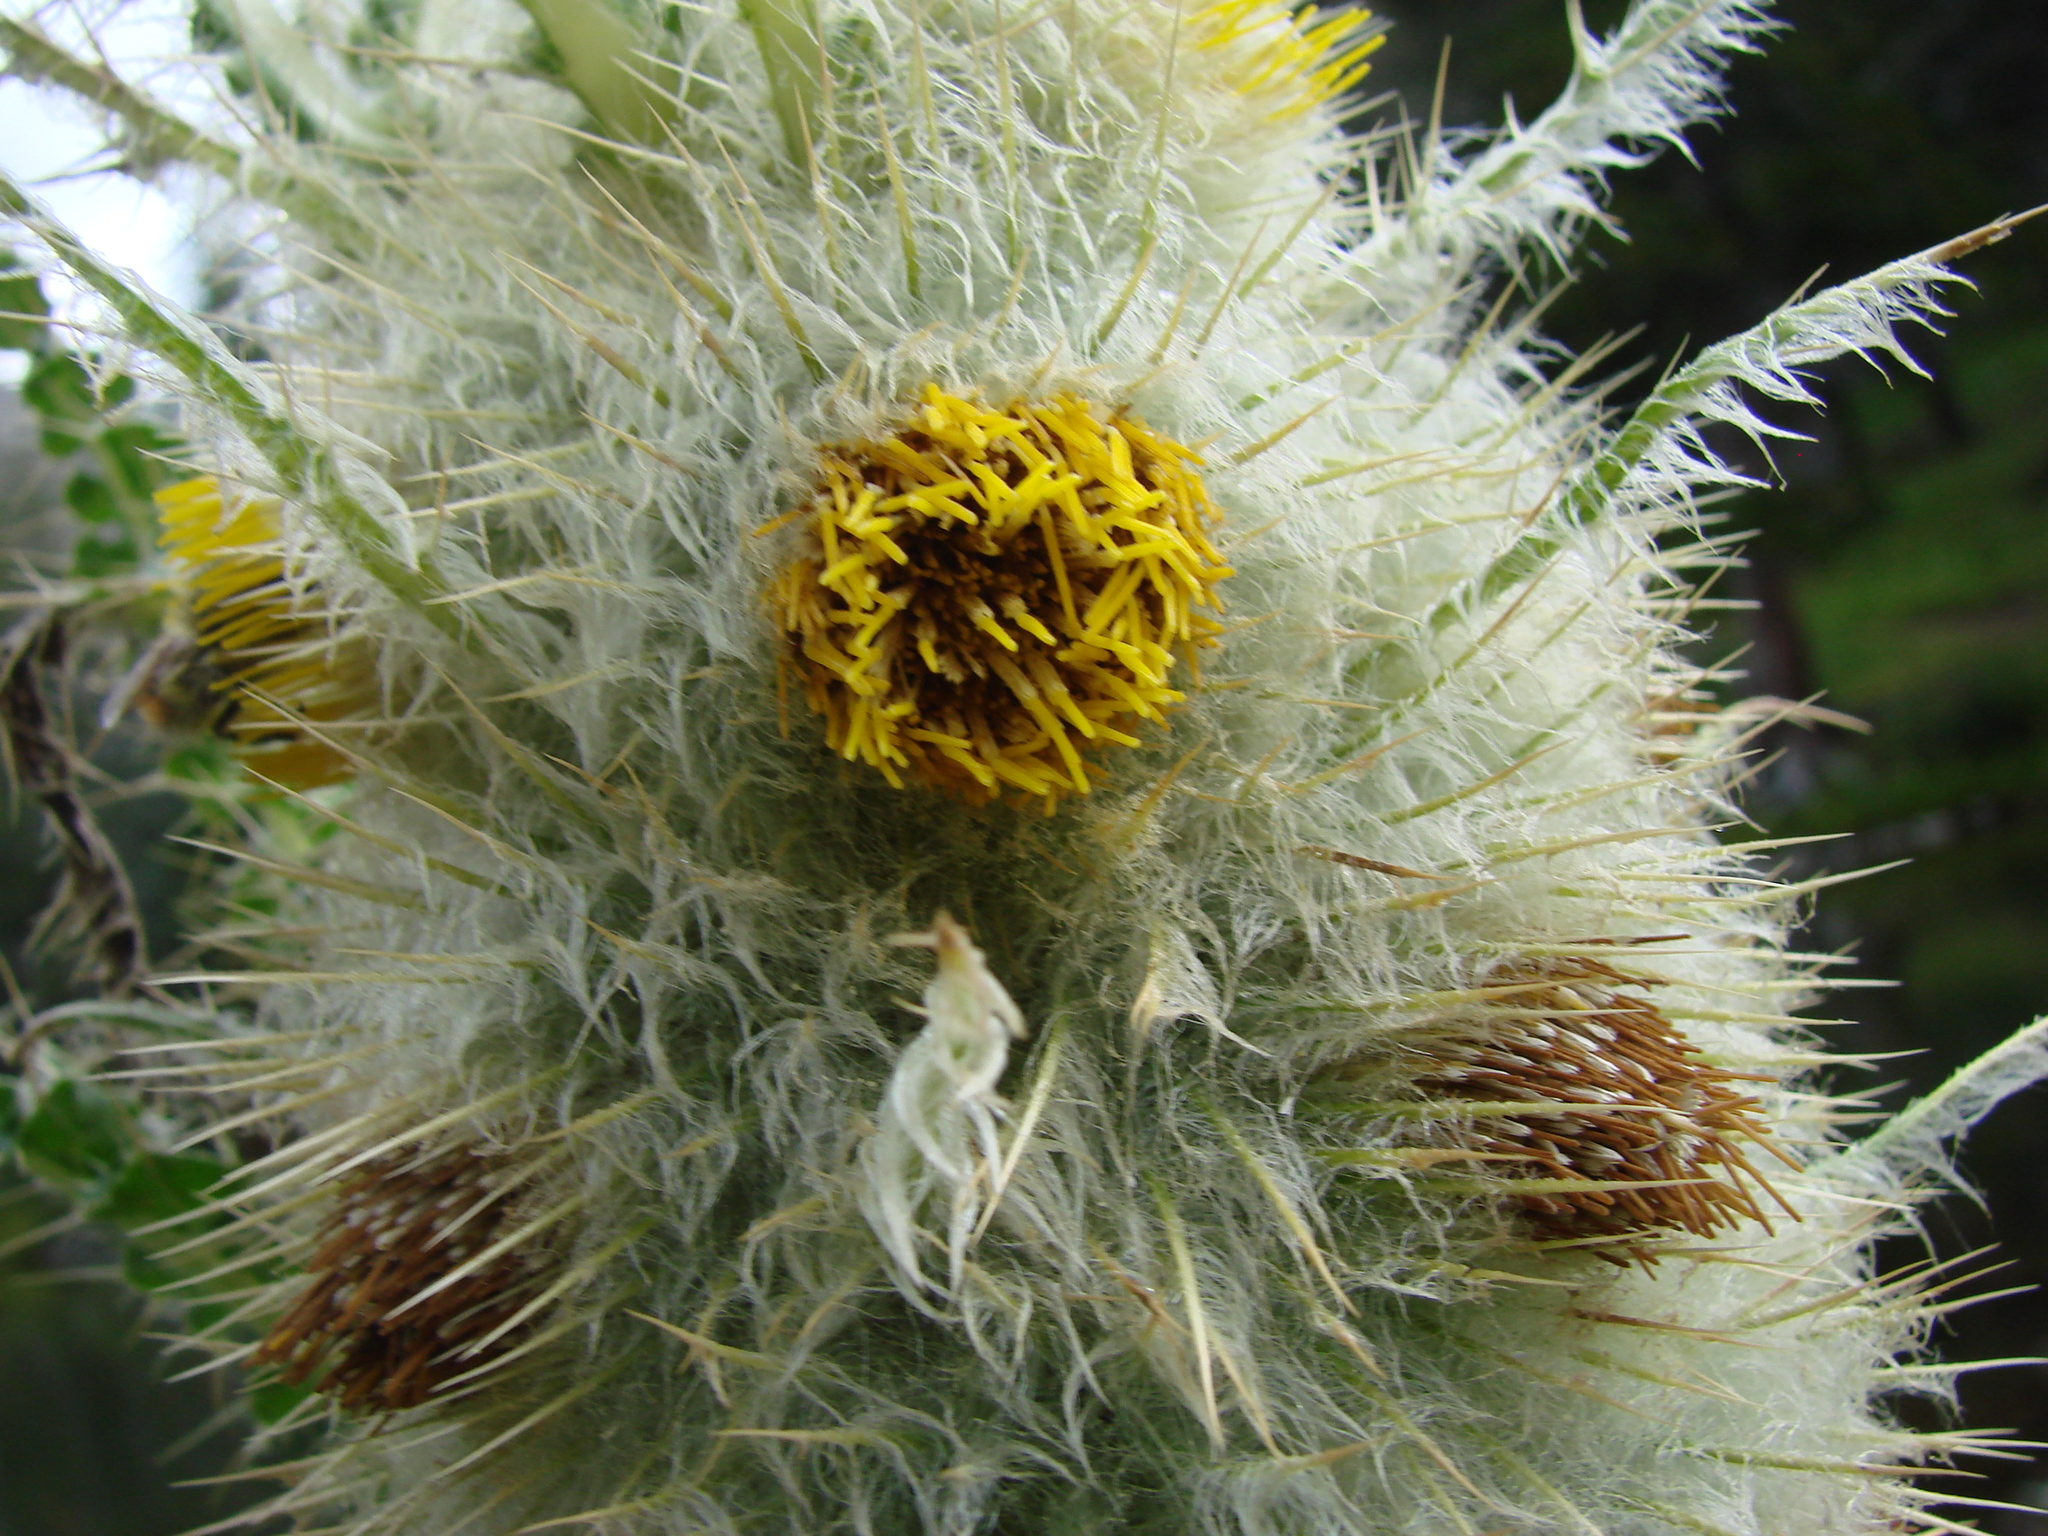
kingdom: Plantae
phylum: Tracheophyta
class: Magnoliopsida
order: Asterales
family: Asteraceae
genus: Cirsium
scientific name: Cirsium funkiae
